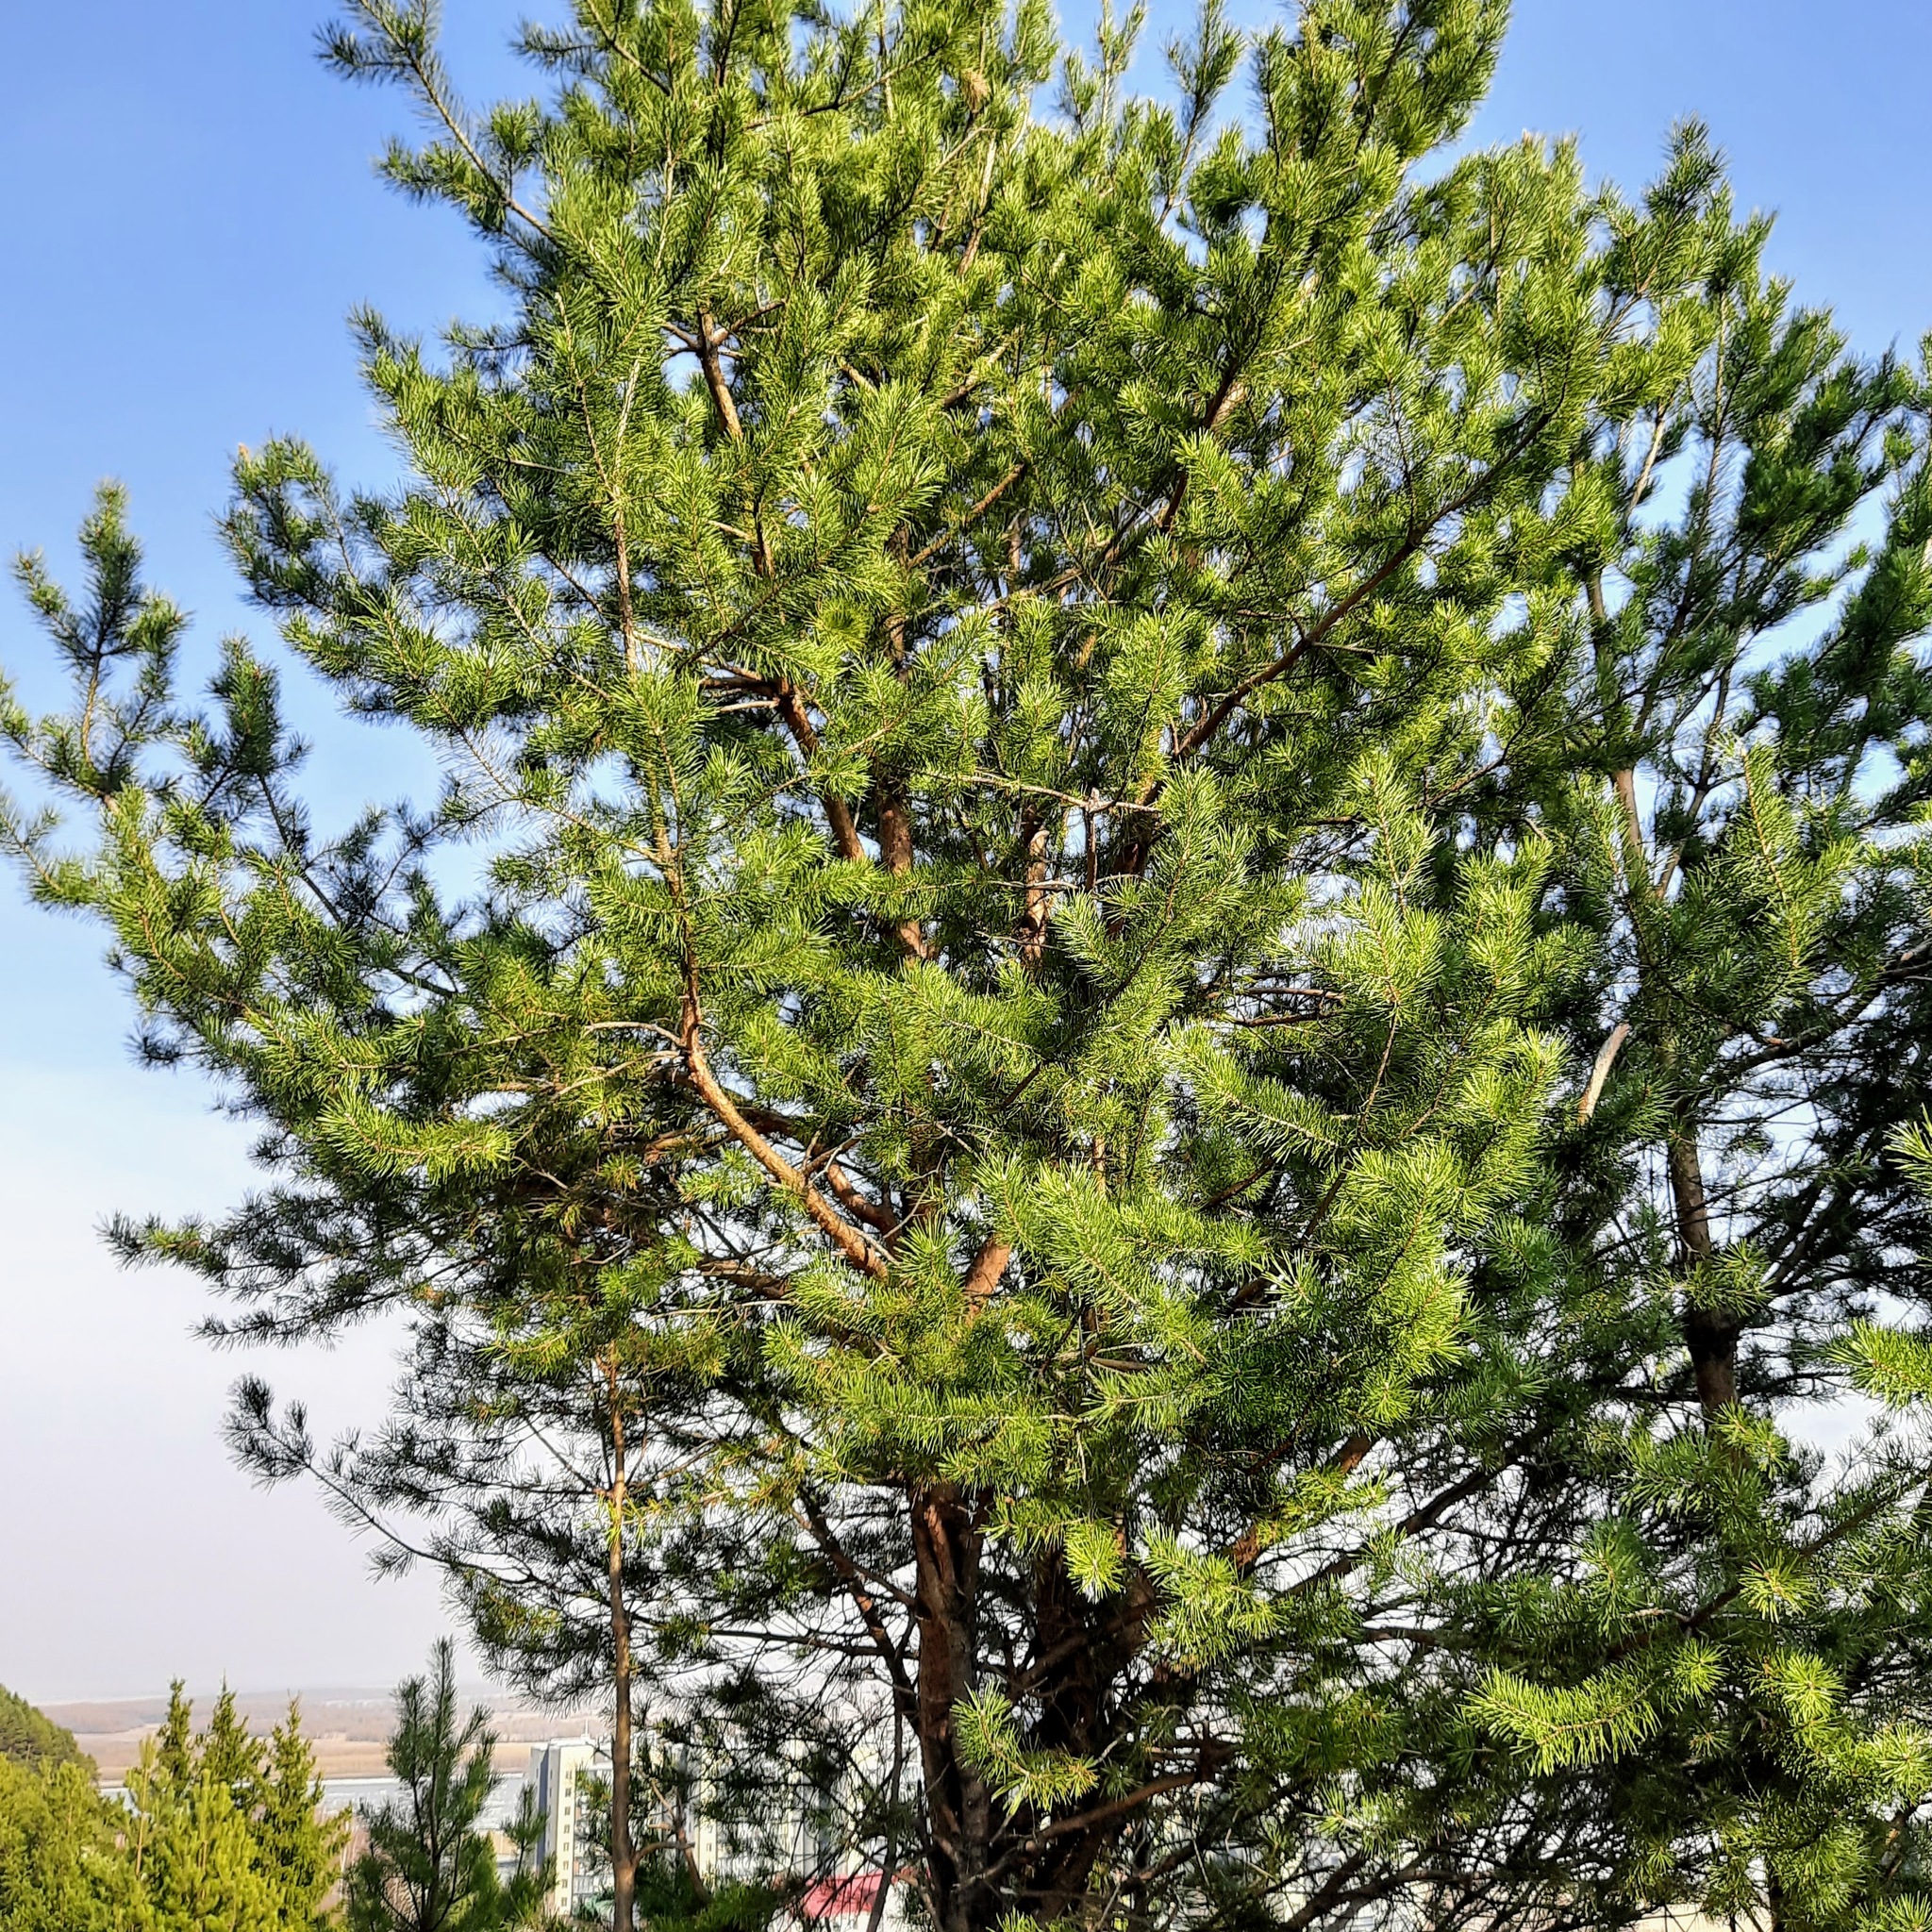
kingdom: Plantae
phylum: Tracheophyta
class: Pinopsida
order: Pinales
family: Pinaceae
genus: Pinus
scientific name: Pinus sylvestris
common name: Scots pine
